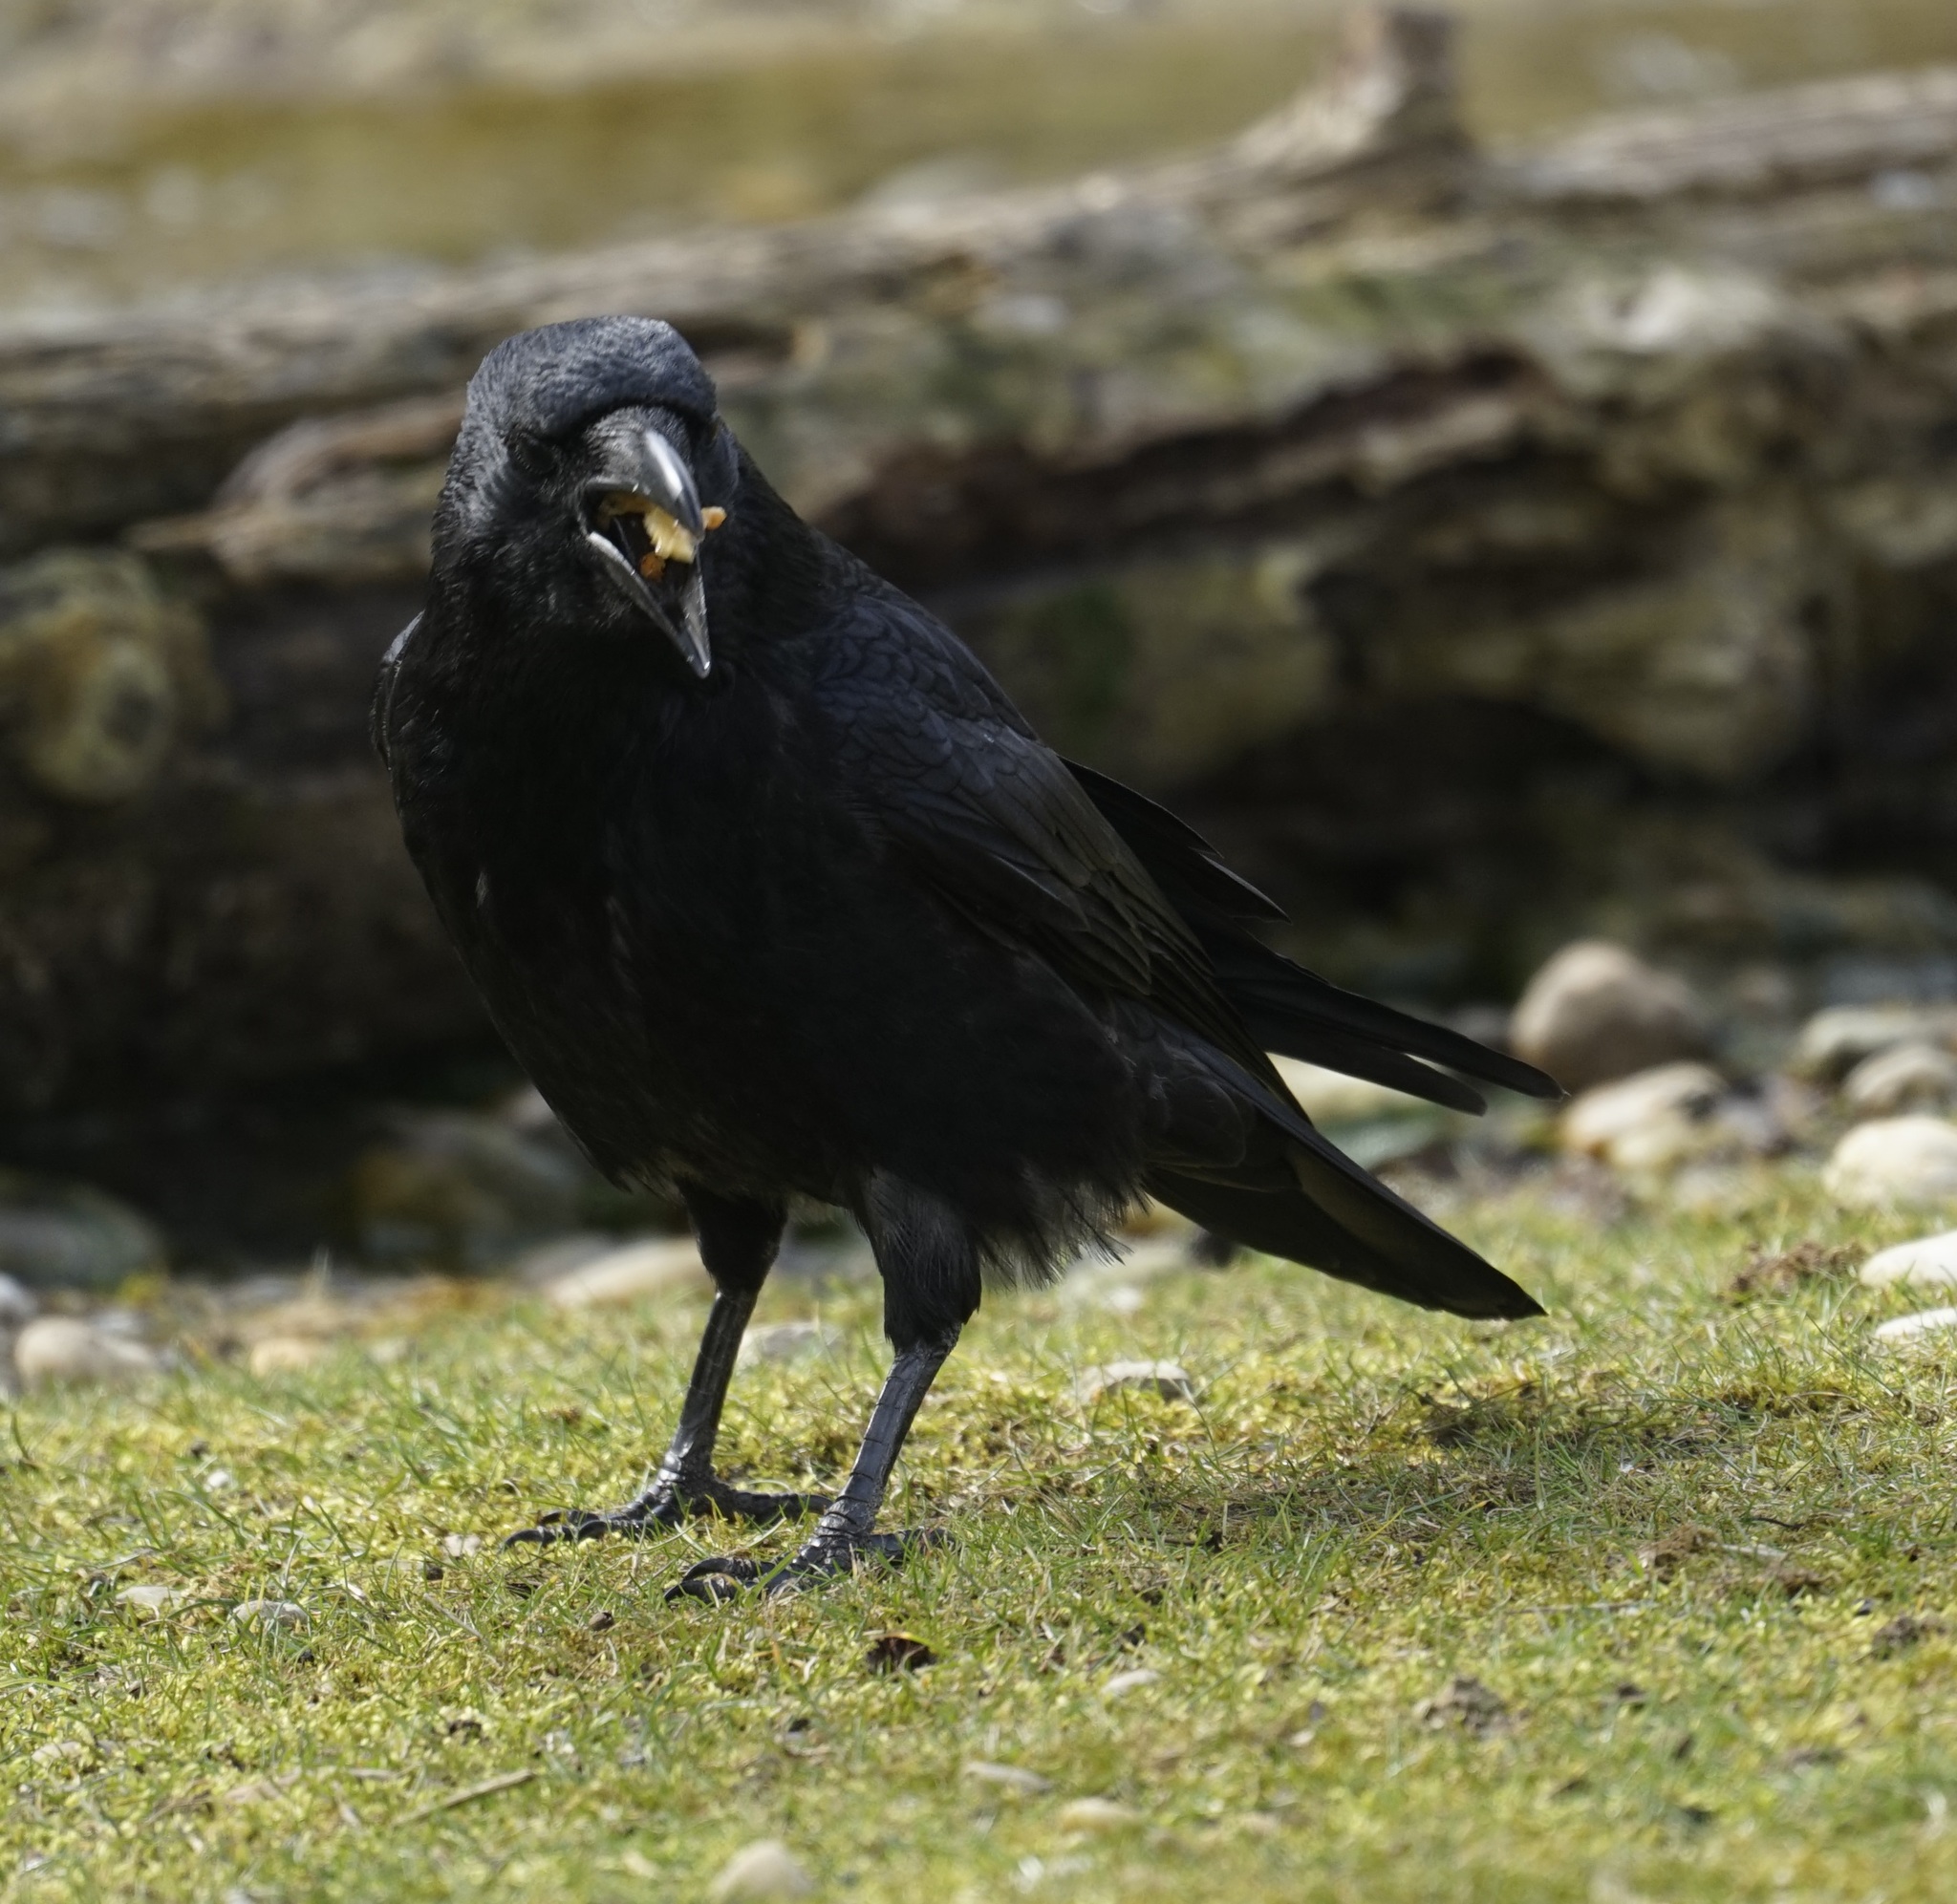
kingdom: Animalia
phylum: Chordata
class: Aves
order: Passeriformes
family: Corvidae
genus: Corvus
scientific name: Corvus corone
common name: Carrion crow
